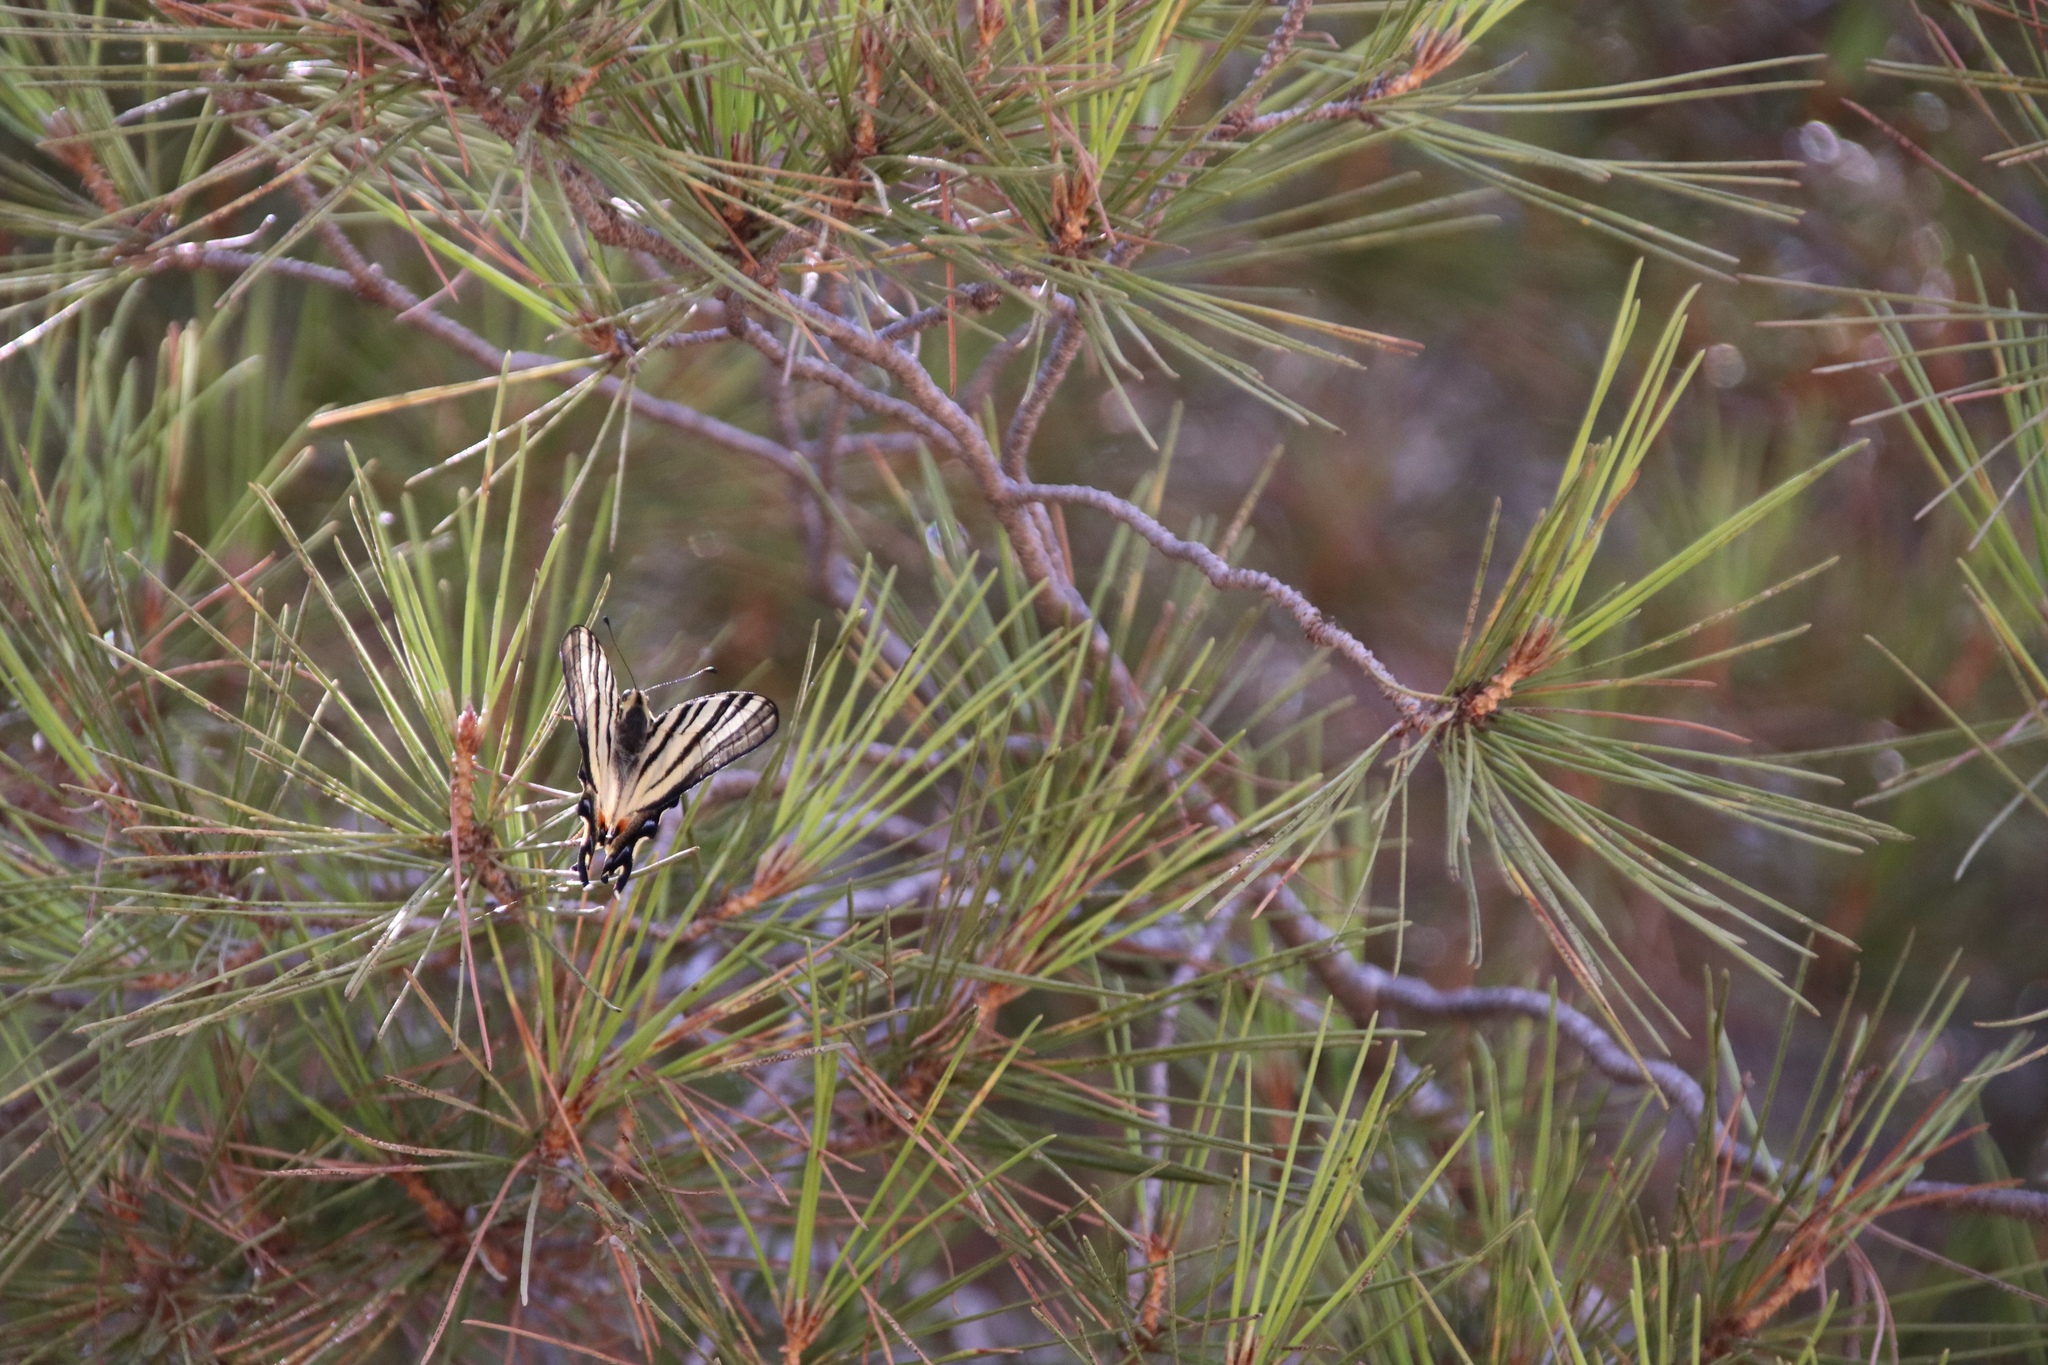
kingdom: Animalia
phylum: Arthropoda
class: Insecta
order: Lepidoptera
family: Papilionidae
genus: Iphiclides
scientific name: Iphiclides podalirius
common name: Scarce swallowtail
